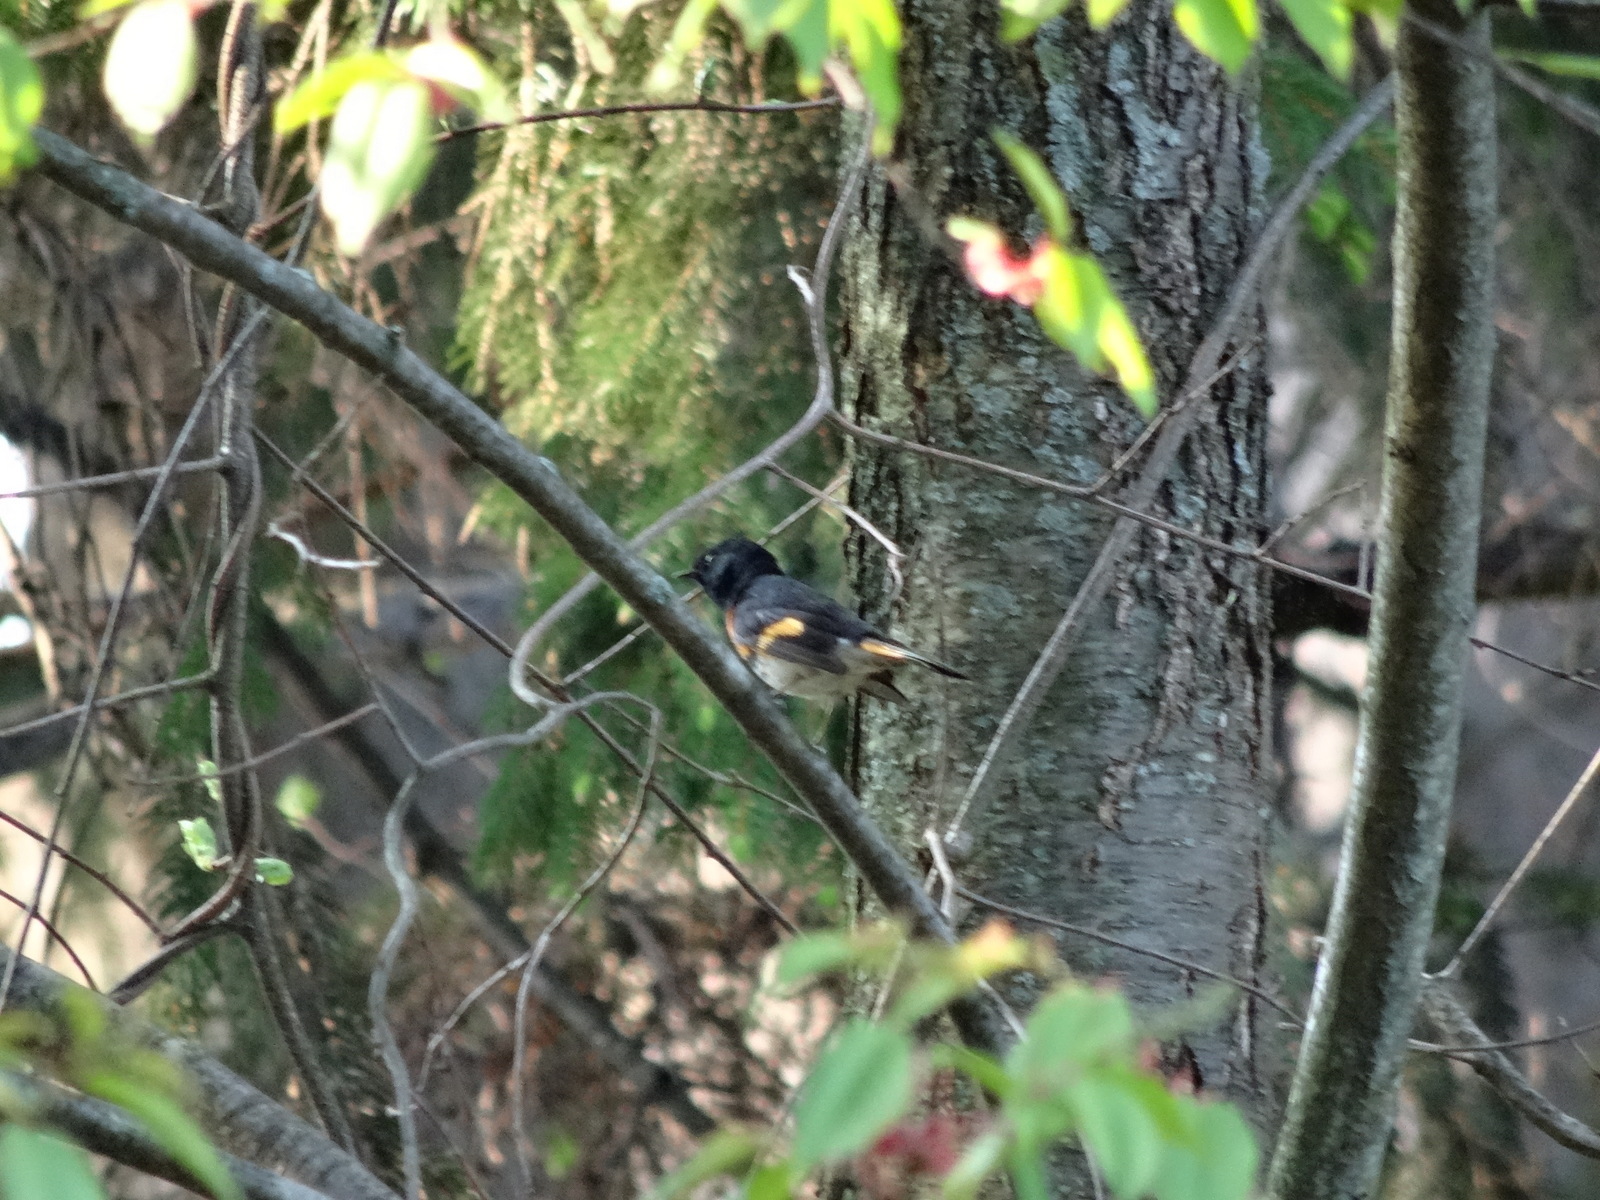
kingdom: Animalia
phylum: Chordata
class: Aves
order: Passeriformes
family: Parulidae
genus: Setophaga
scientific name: Setophaga ruticilla
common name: American redstart
